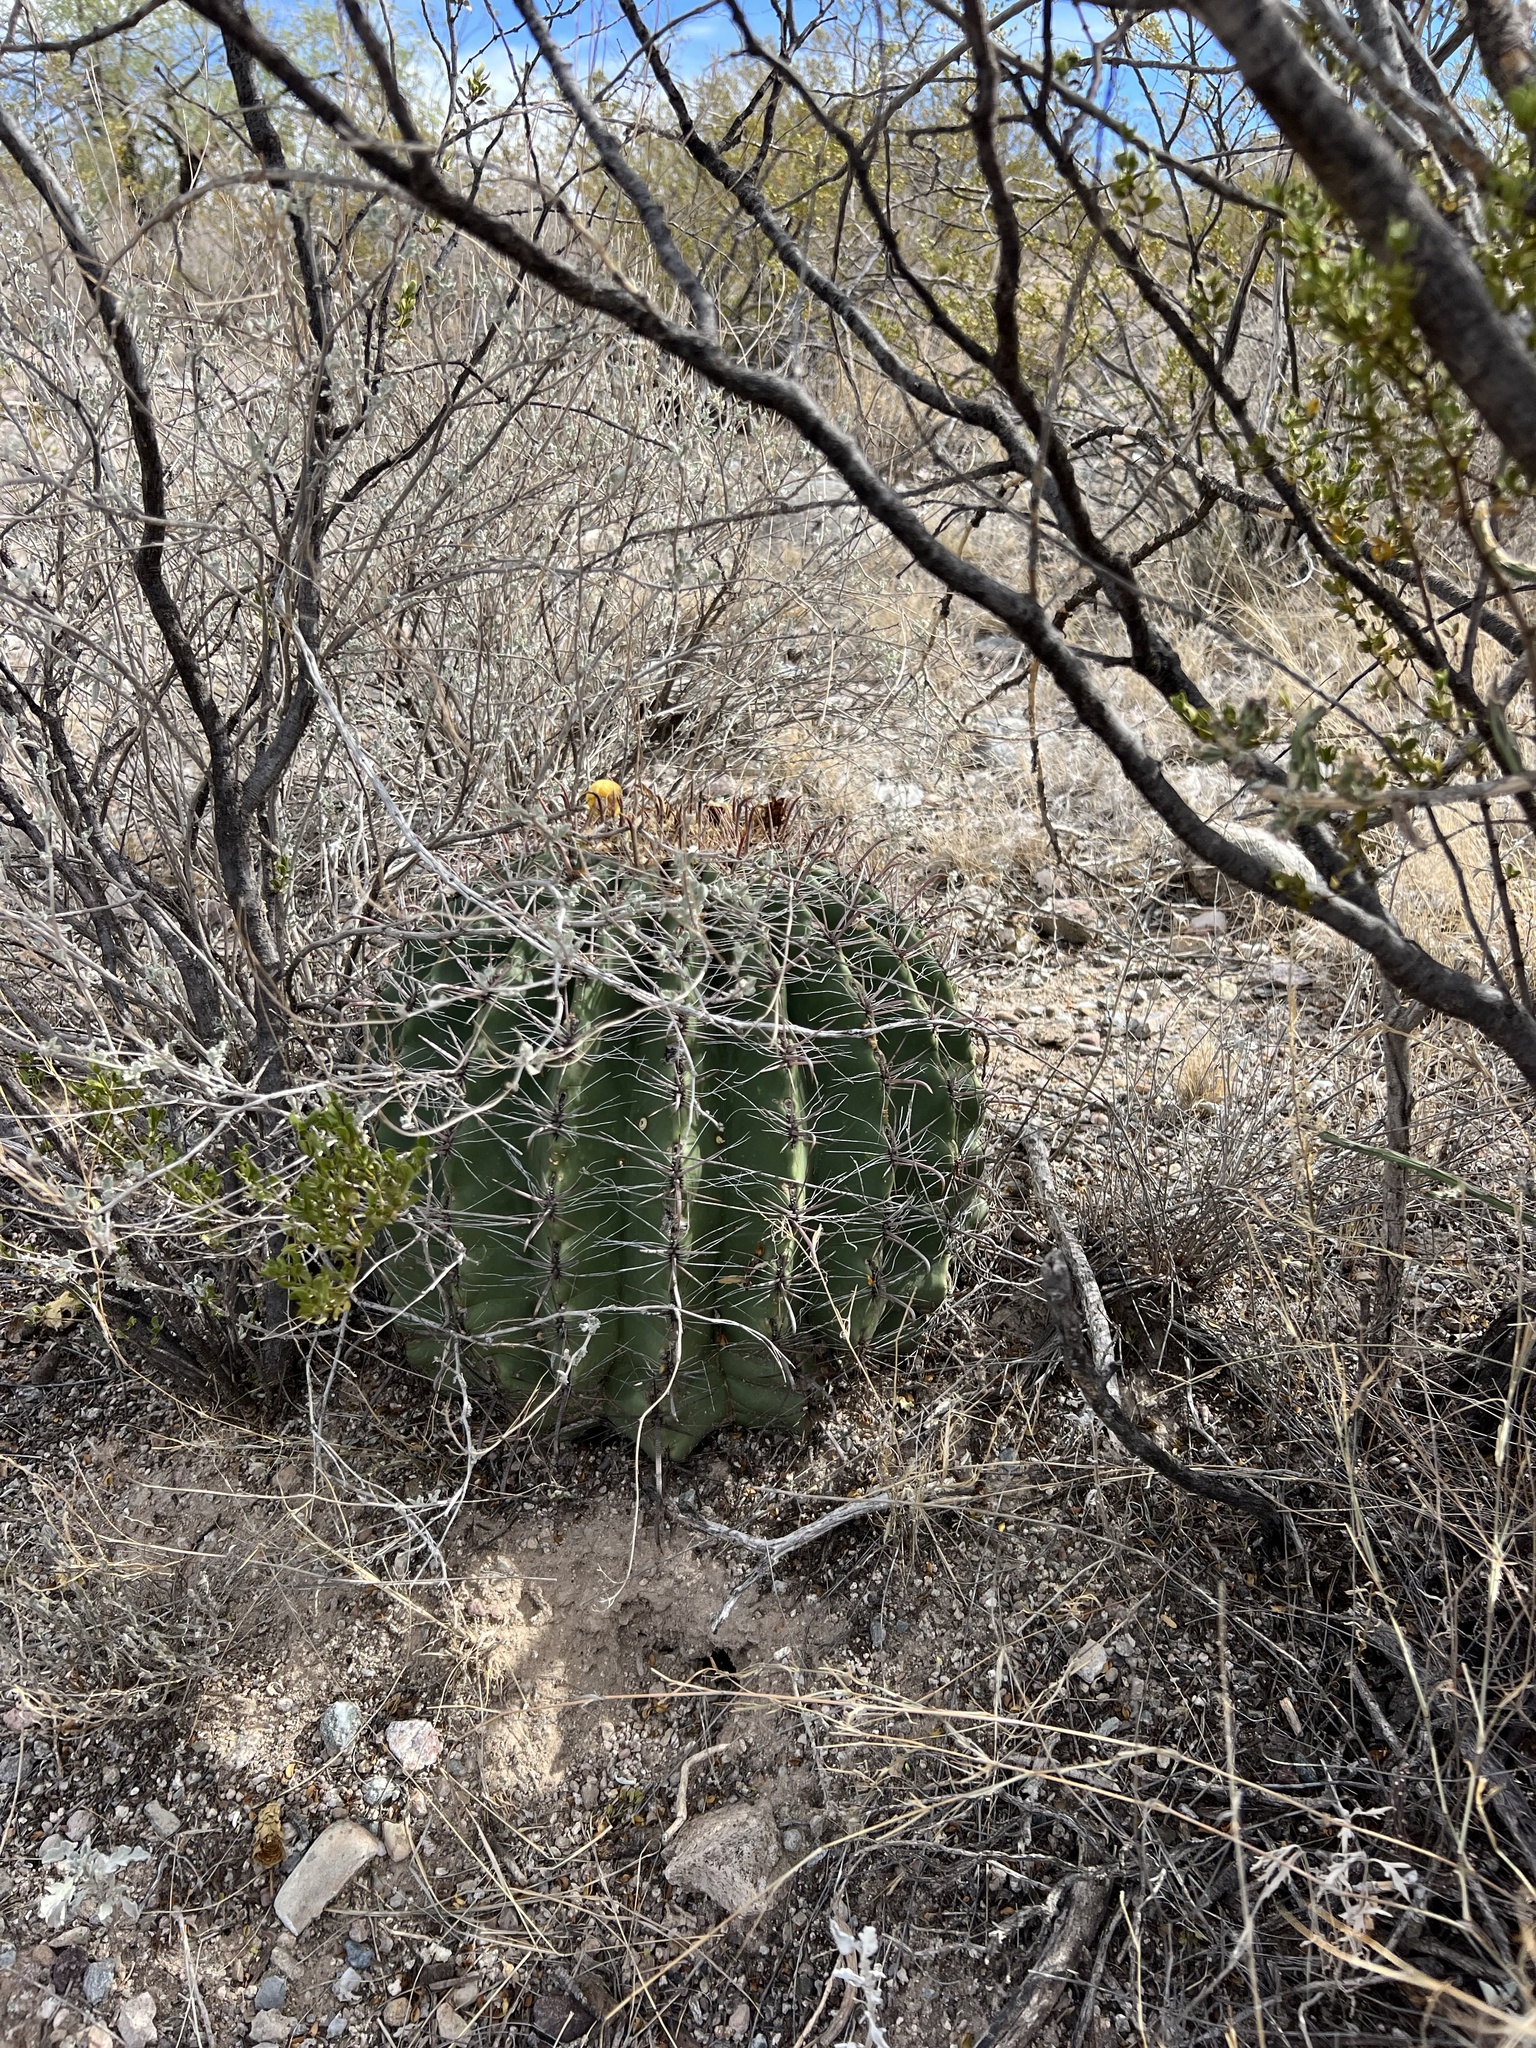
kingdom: Plantae
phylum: Tracheophyta
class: Magnoliopsida
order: Caryophyllales
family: Cactaceae
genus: Ferocactus
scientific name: Ferocactus wislizeni
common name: Candy barrel cactus
